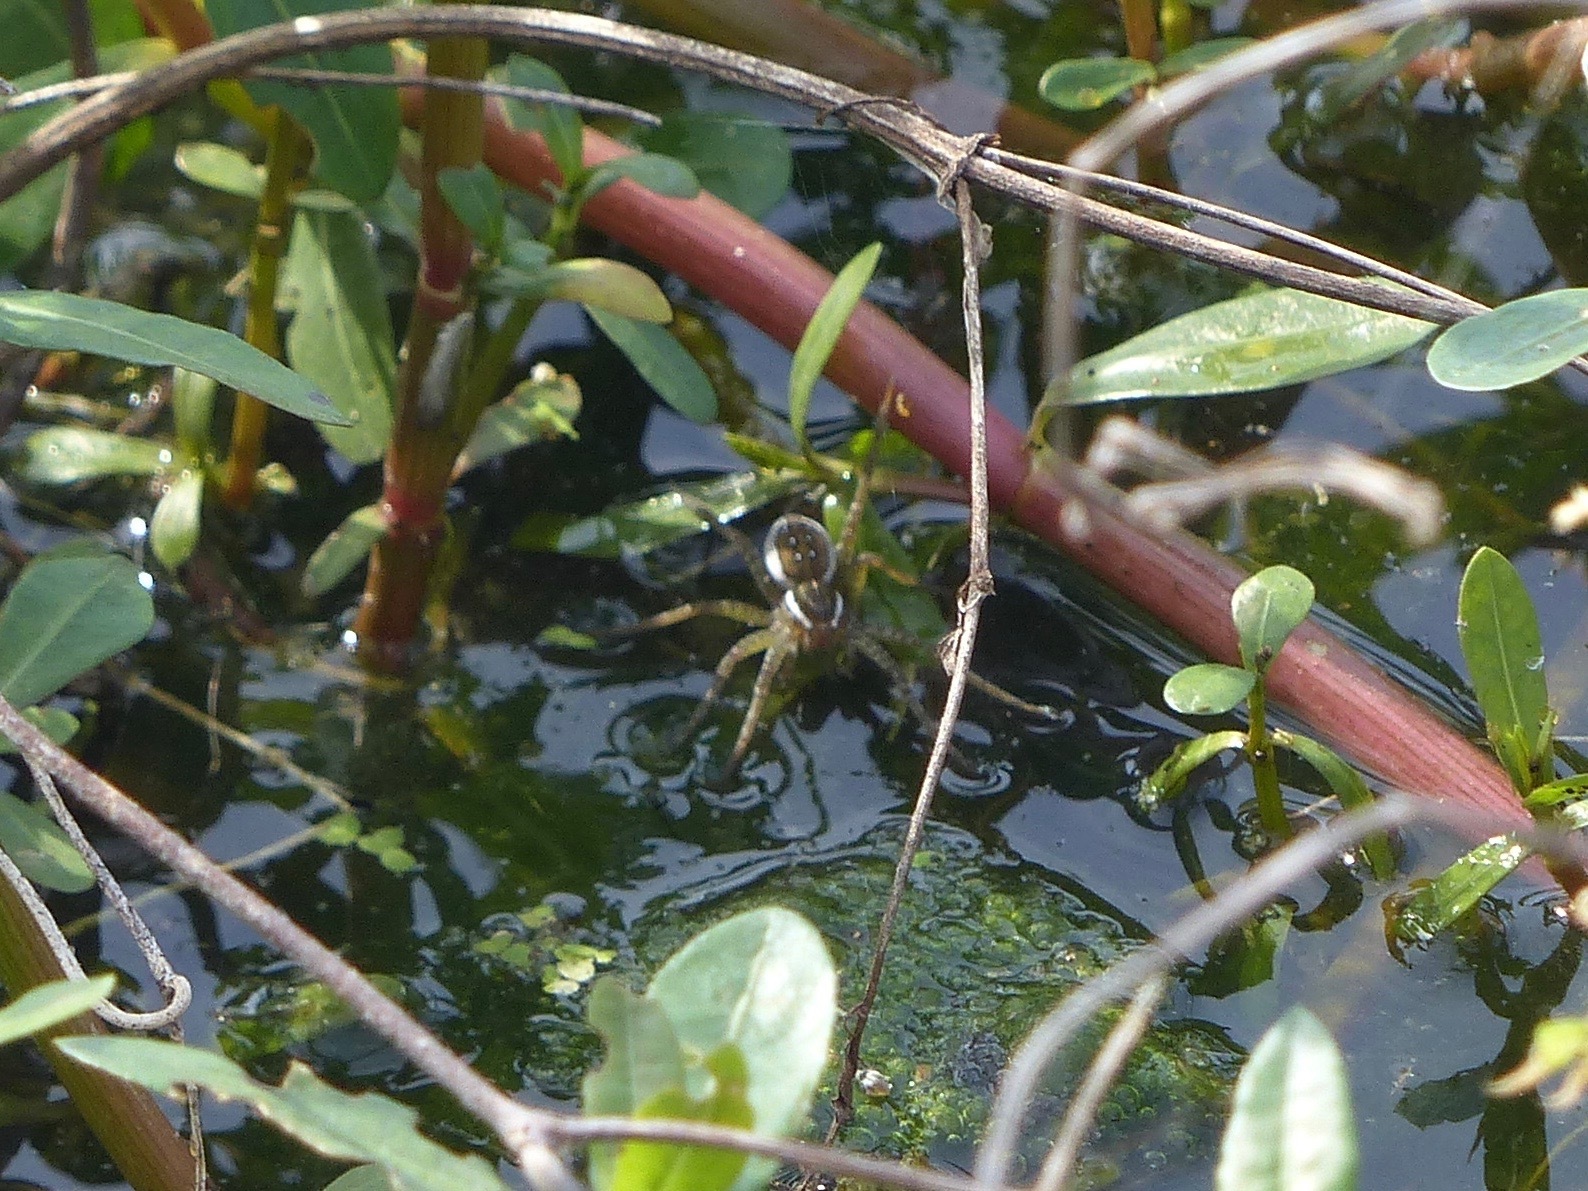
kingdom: Animalia
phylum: Arthropoda
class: Arachnida
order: Araneae
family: Pisauridae
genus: Dolomedes
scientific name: Dolomedes triton
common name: Six-spotted fishing spider
